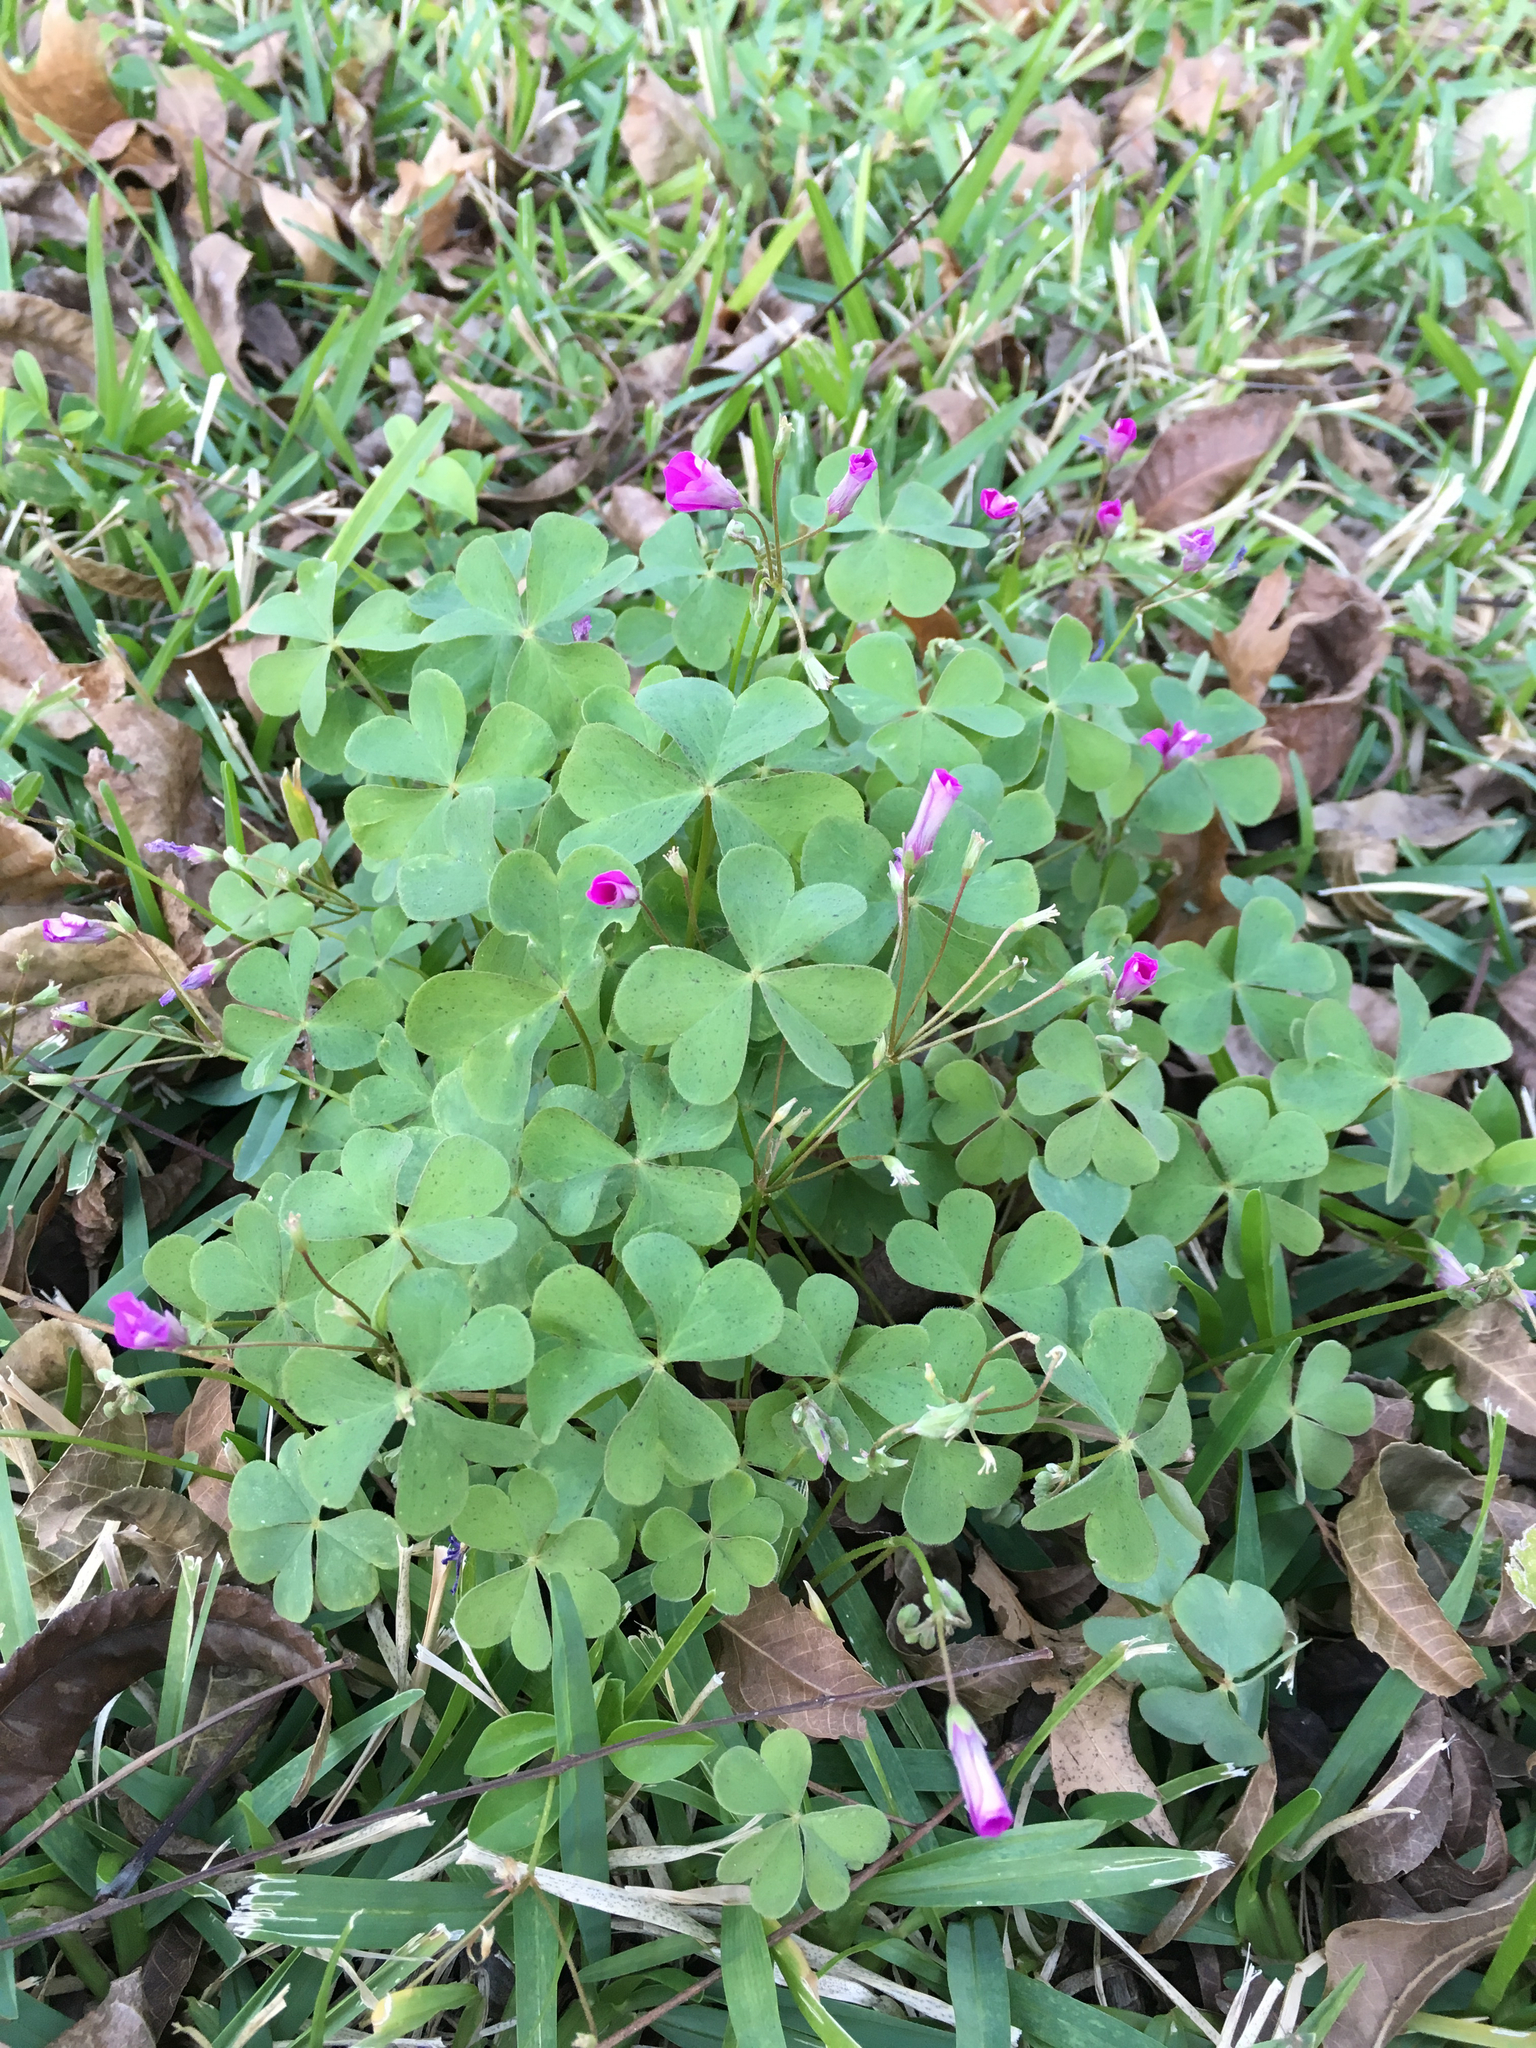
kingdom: Plantae
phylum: Tracheophyta
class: Magnoliopsida
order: Oxalidales
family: Oxalidaceae
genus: Oxalis
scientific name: Oxalis articulata
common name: Pink-sorrel
